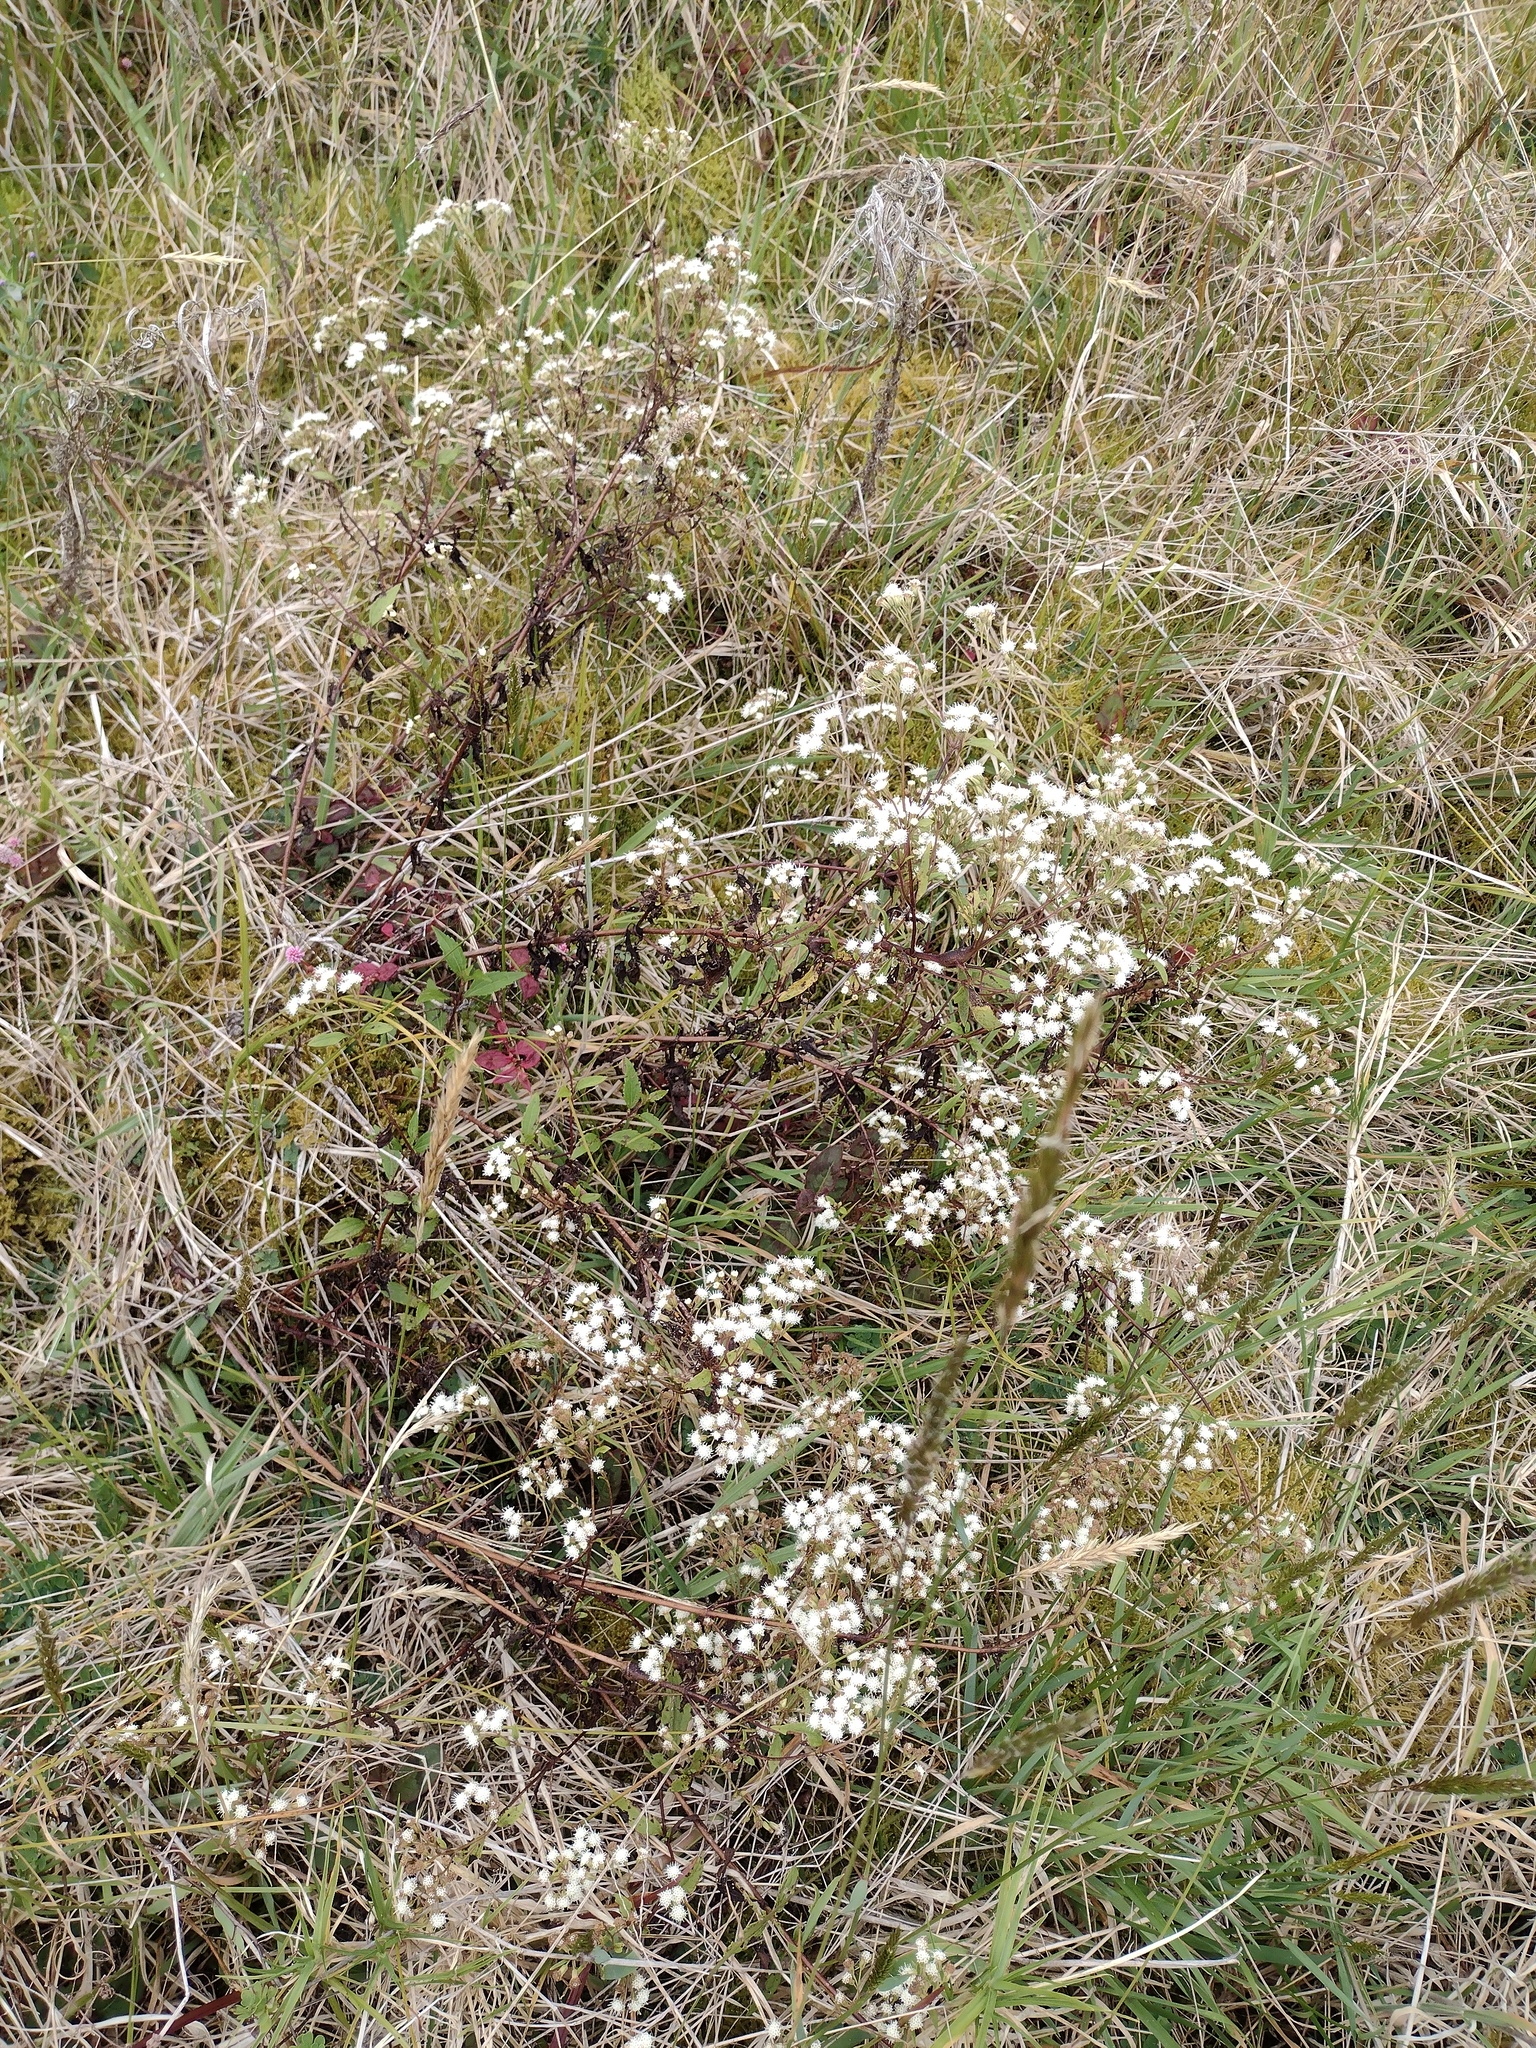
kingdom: Plantae
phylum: Tracheophyta
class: Magnoliopsida
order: Asterales
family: Asteraceae
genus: Ageratina
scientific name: Ageratina riparia
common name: Creeping croftonweed
